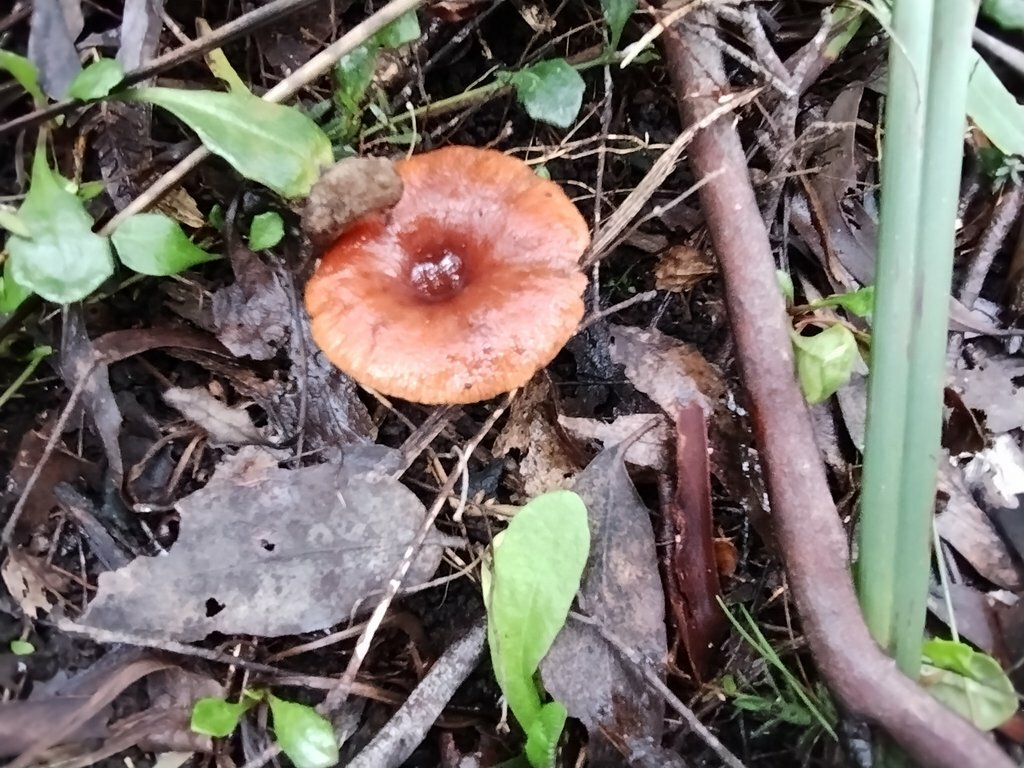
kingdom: Fungi
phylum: Basidiomycota
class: Agaricomycetes
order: Russulales
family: Russulaceae
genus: Lactarius
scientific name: Lactarius eucalypti
